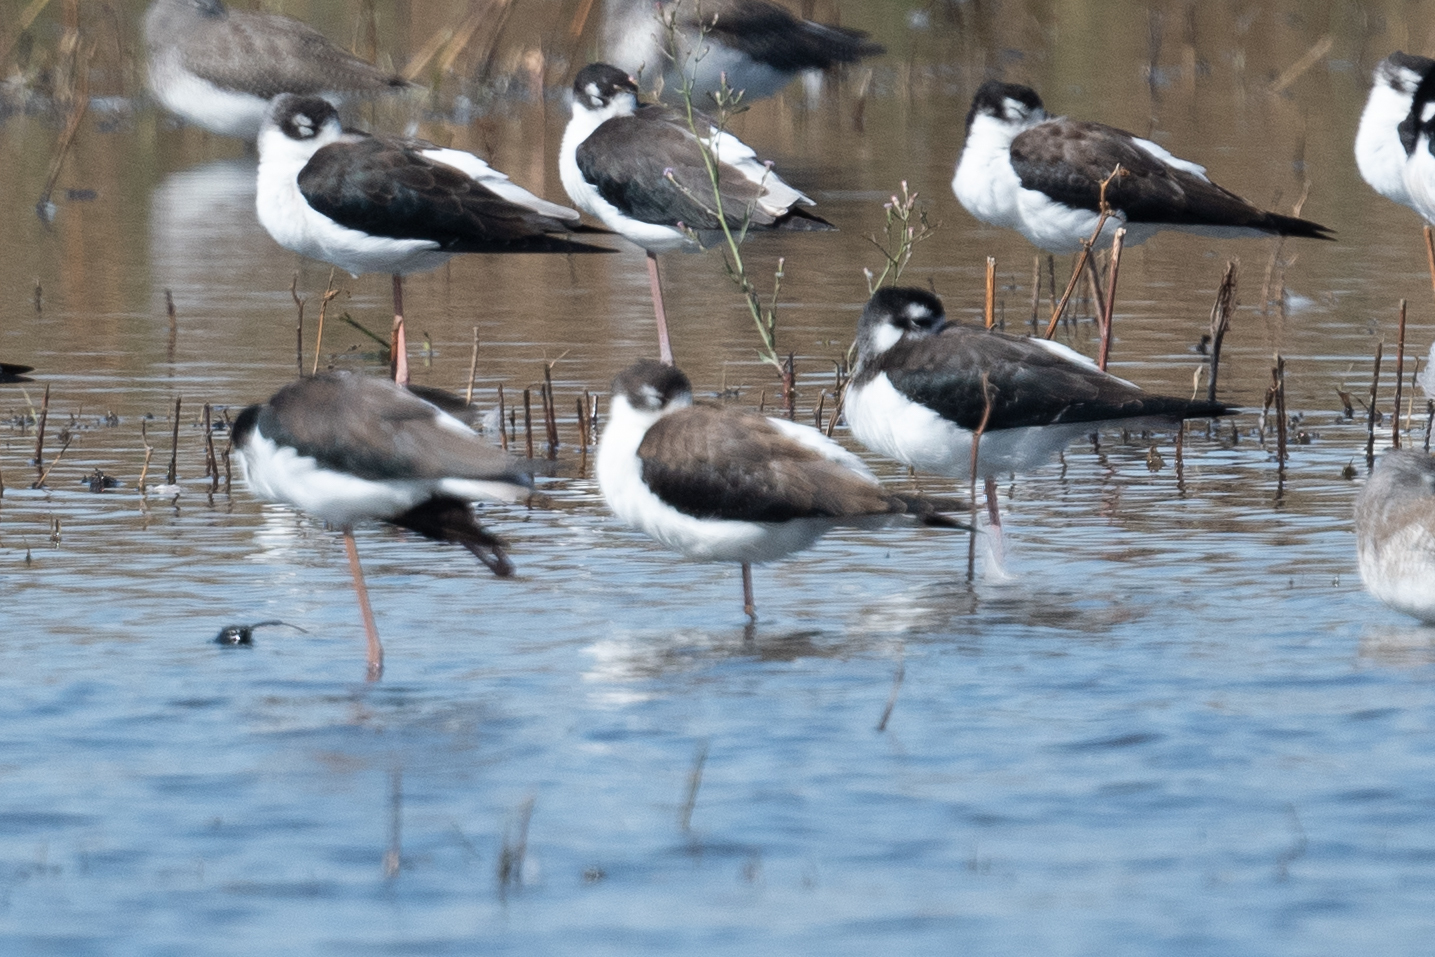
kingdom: Animalia
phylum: Chordata
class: Aves
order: Charadriiformes
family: Recurvirostridae
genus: Himantopus
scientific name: Himantopus mexicanus
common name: Black-necked stilt
